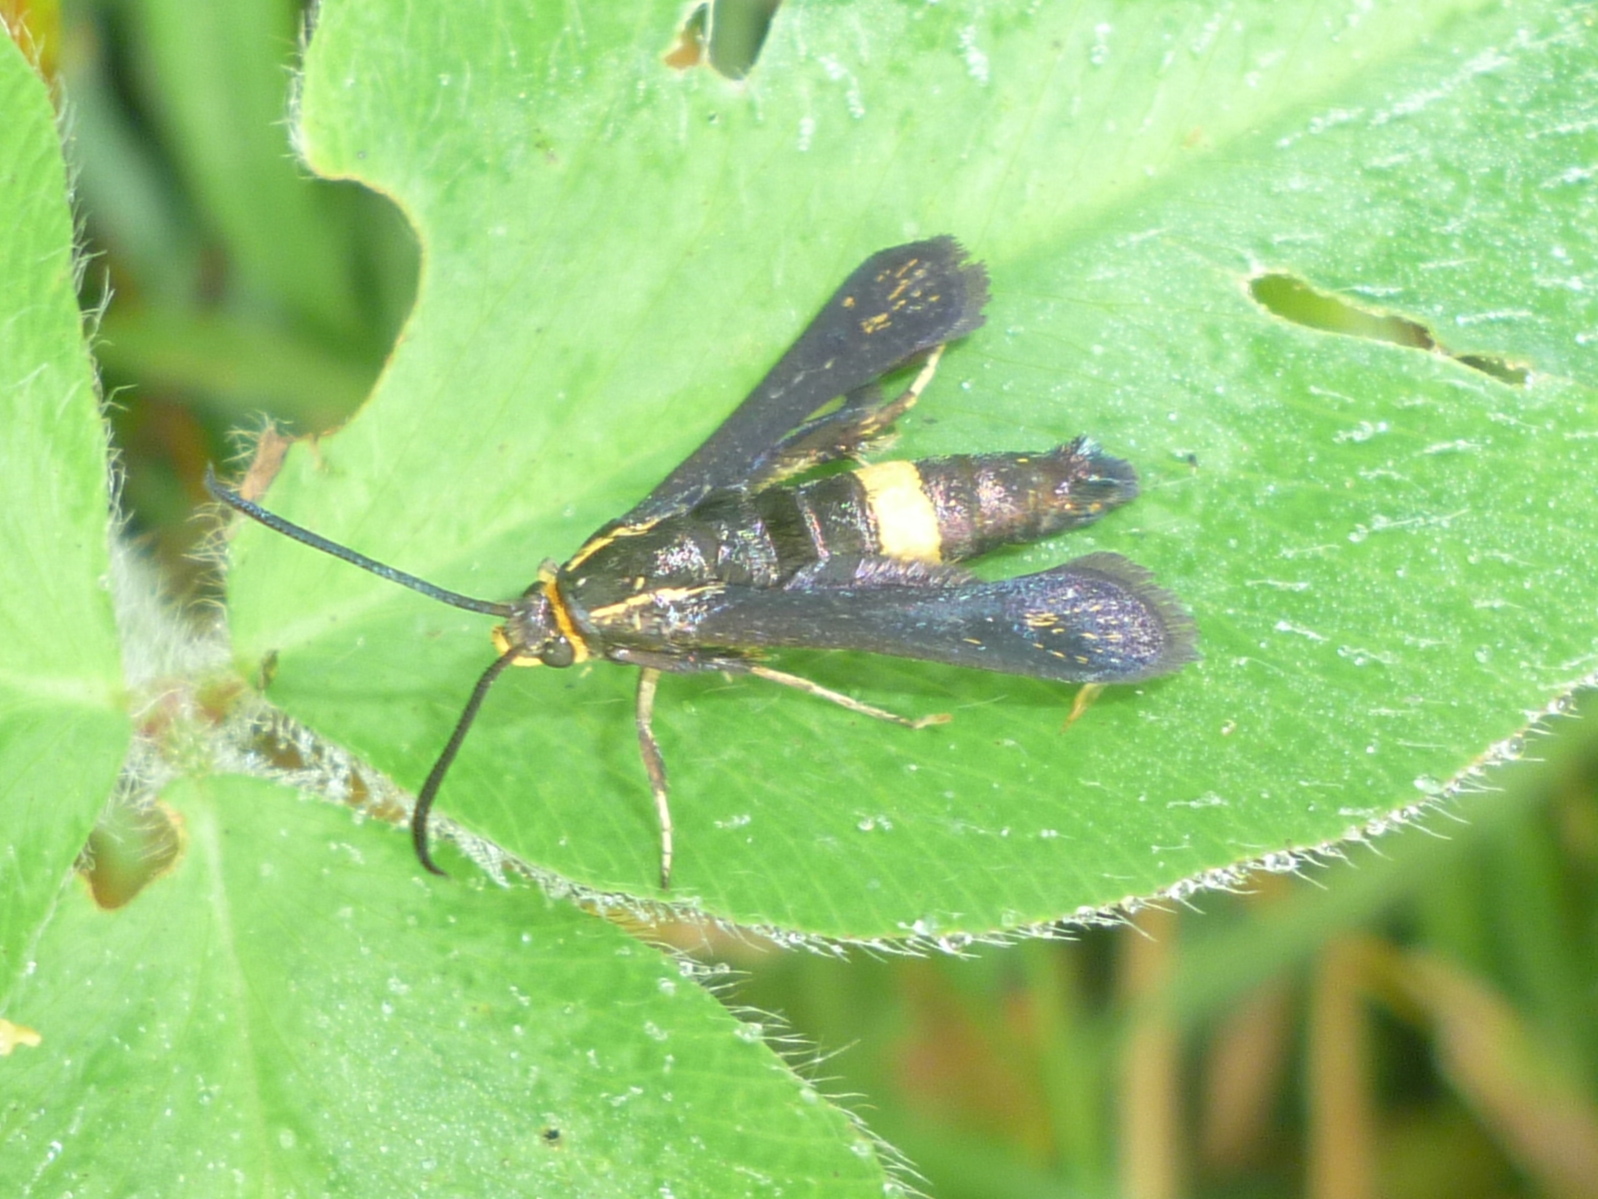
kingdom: Animalia
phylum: Arthropoda
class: Insecta
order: Lepidoptera
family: Sesiidae
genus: Carmenta
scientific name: Carmenta pyralidiformis
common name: Boneset borer moth
